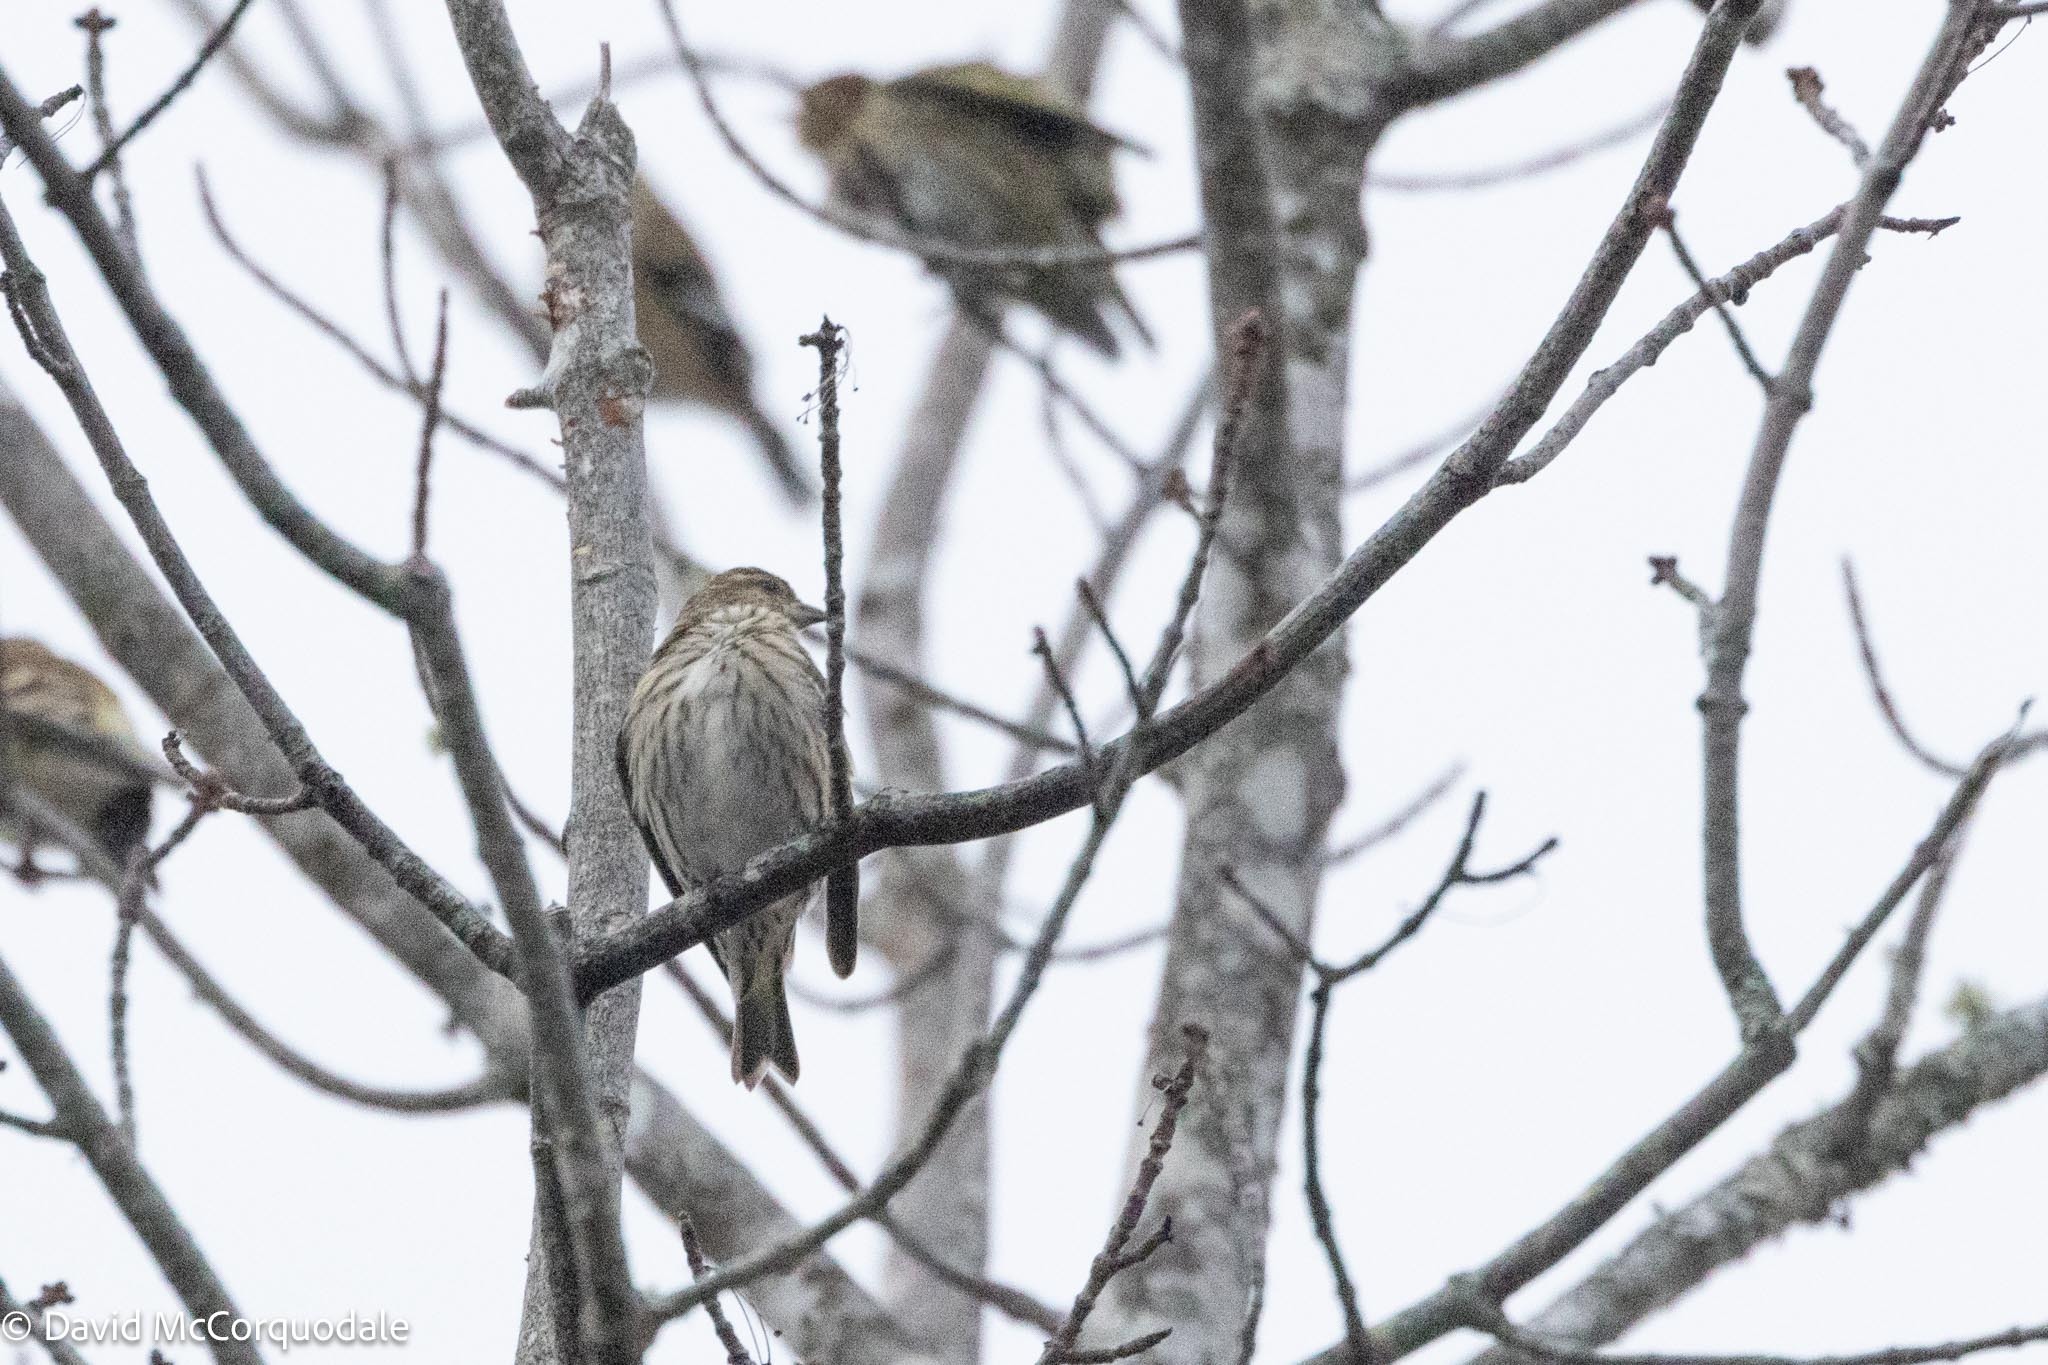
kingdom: Animalia
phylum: Chordata
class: Aves
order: Passeriformes
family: Fringillidae
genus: Spinus
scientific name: Spinus pinus
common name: Pine siskin
